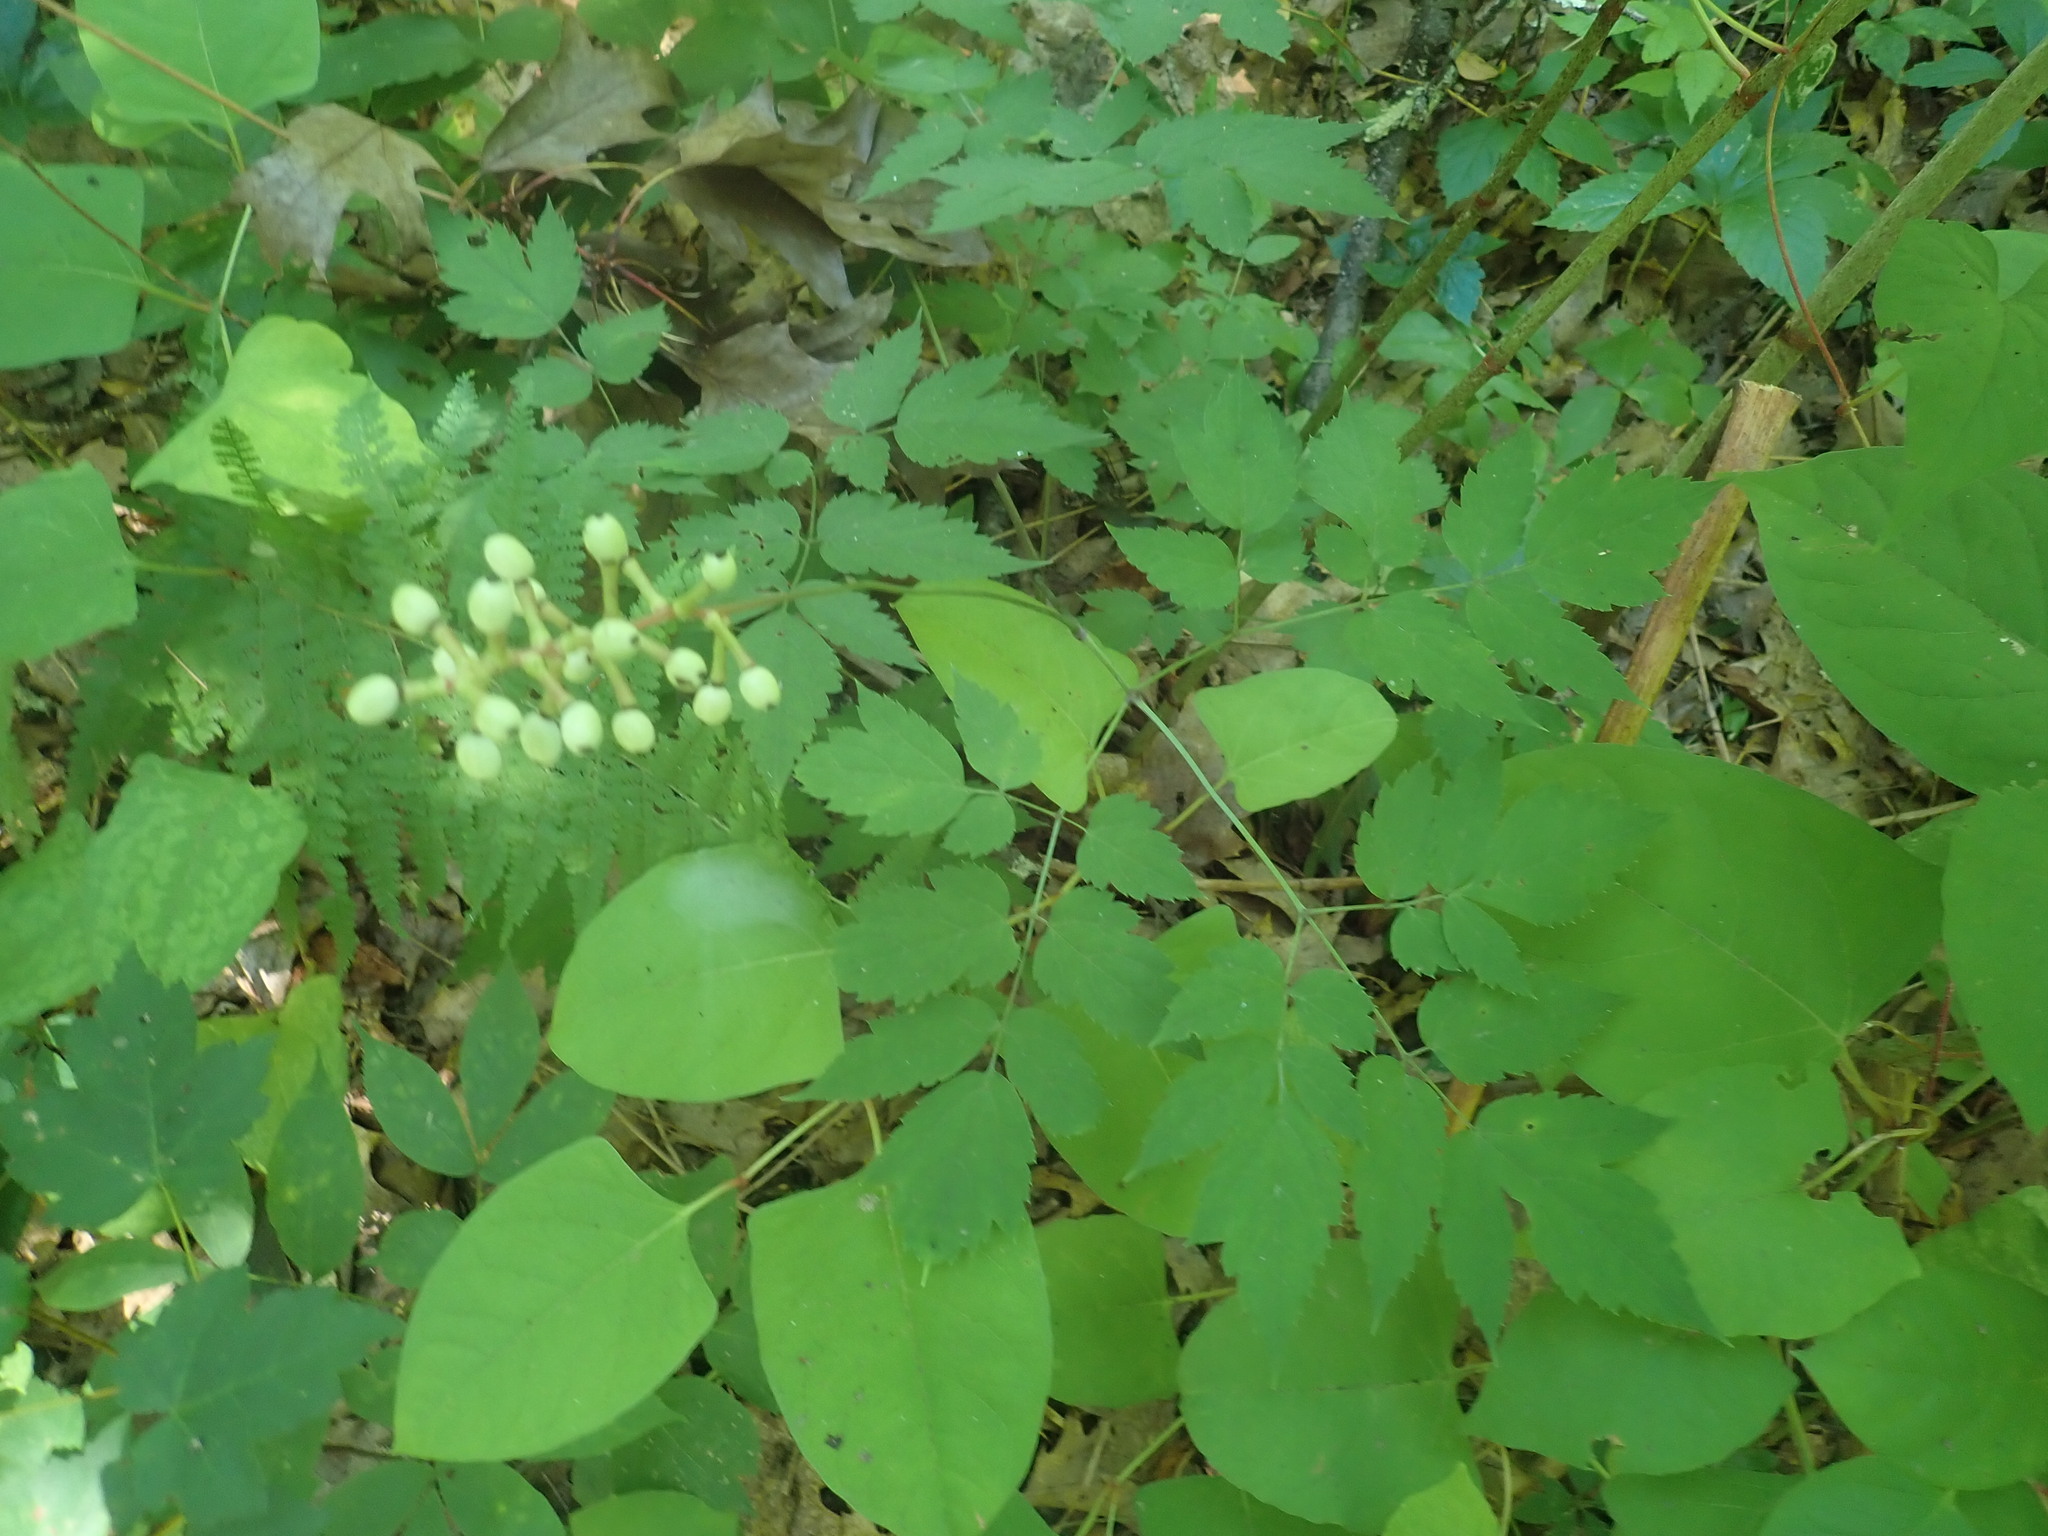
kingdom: Plantae
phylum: Tracheophyta
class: Magnoliopsida
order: Ranunculales
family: Ranunculaceae
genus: Actaea
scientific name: Actaea pachypoda
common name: Doll's-eyes
